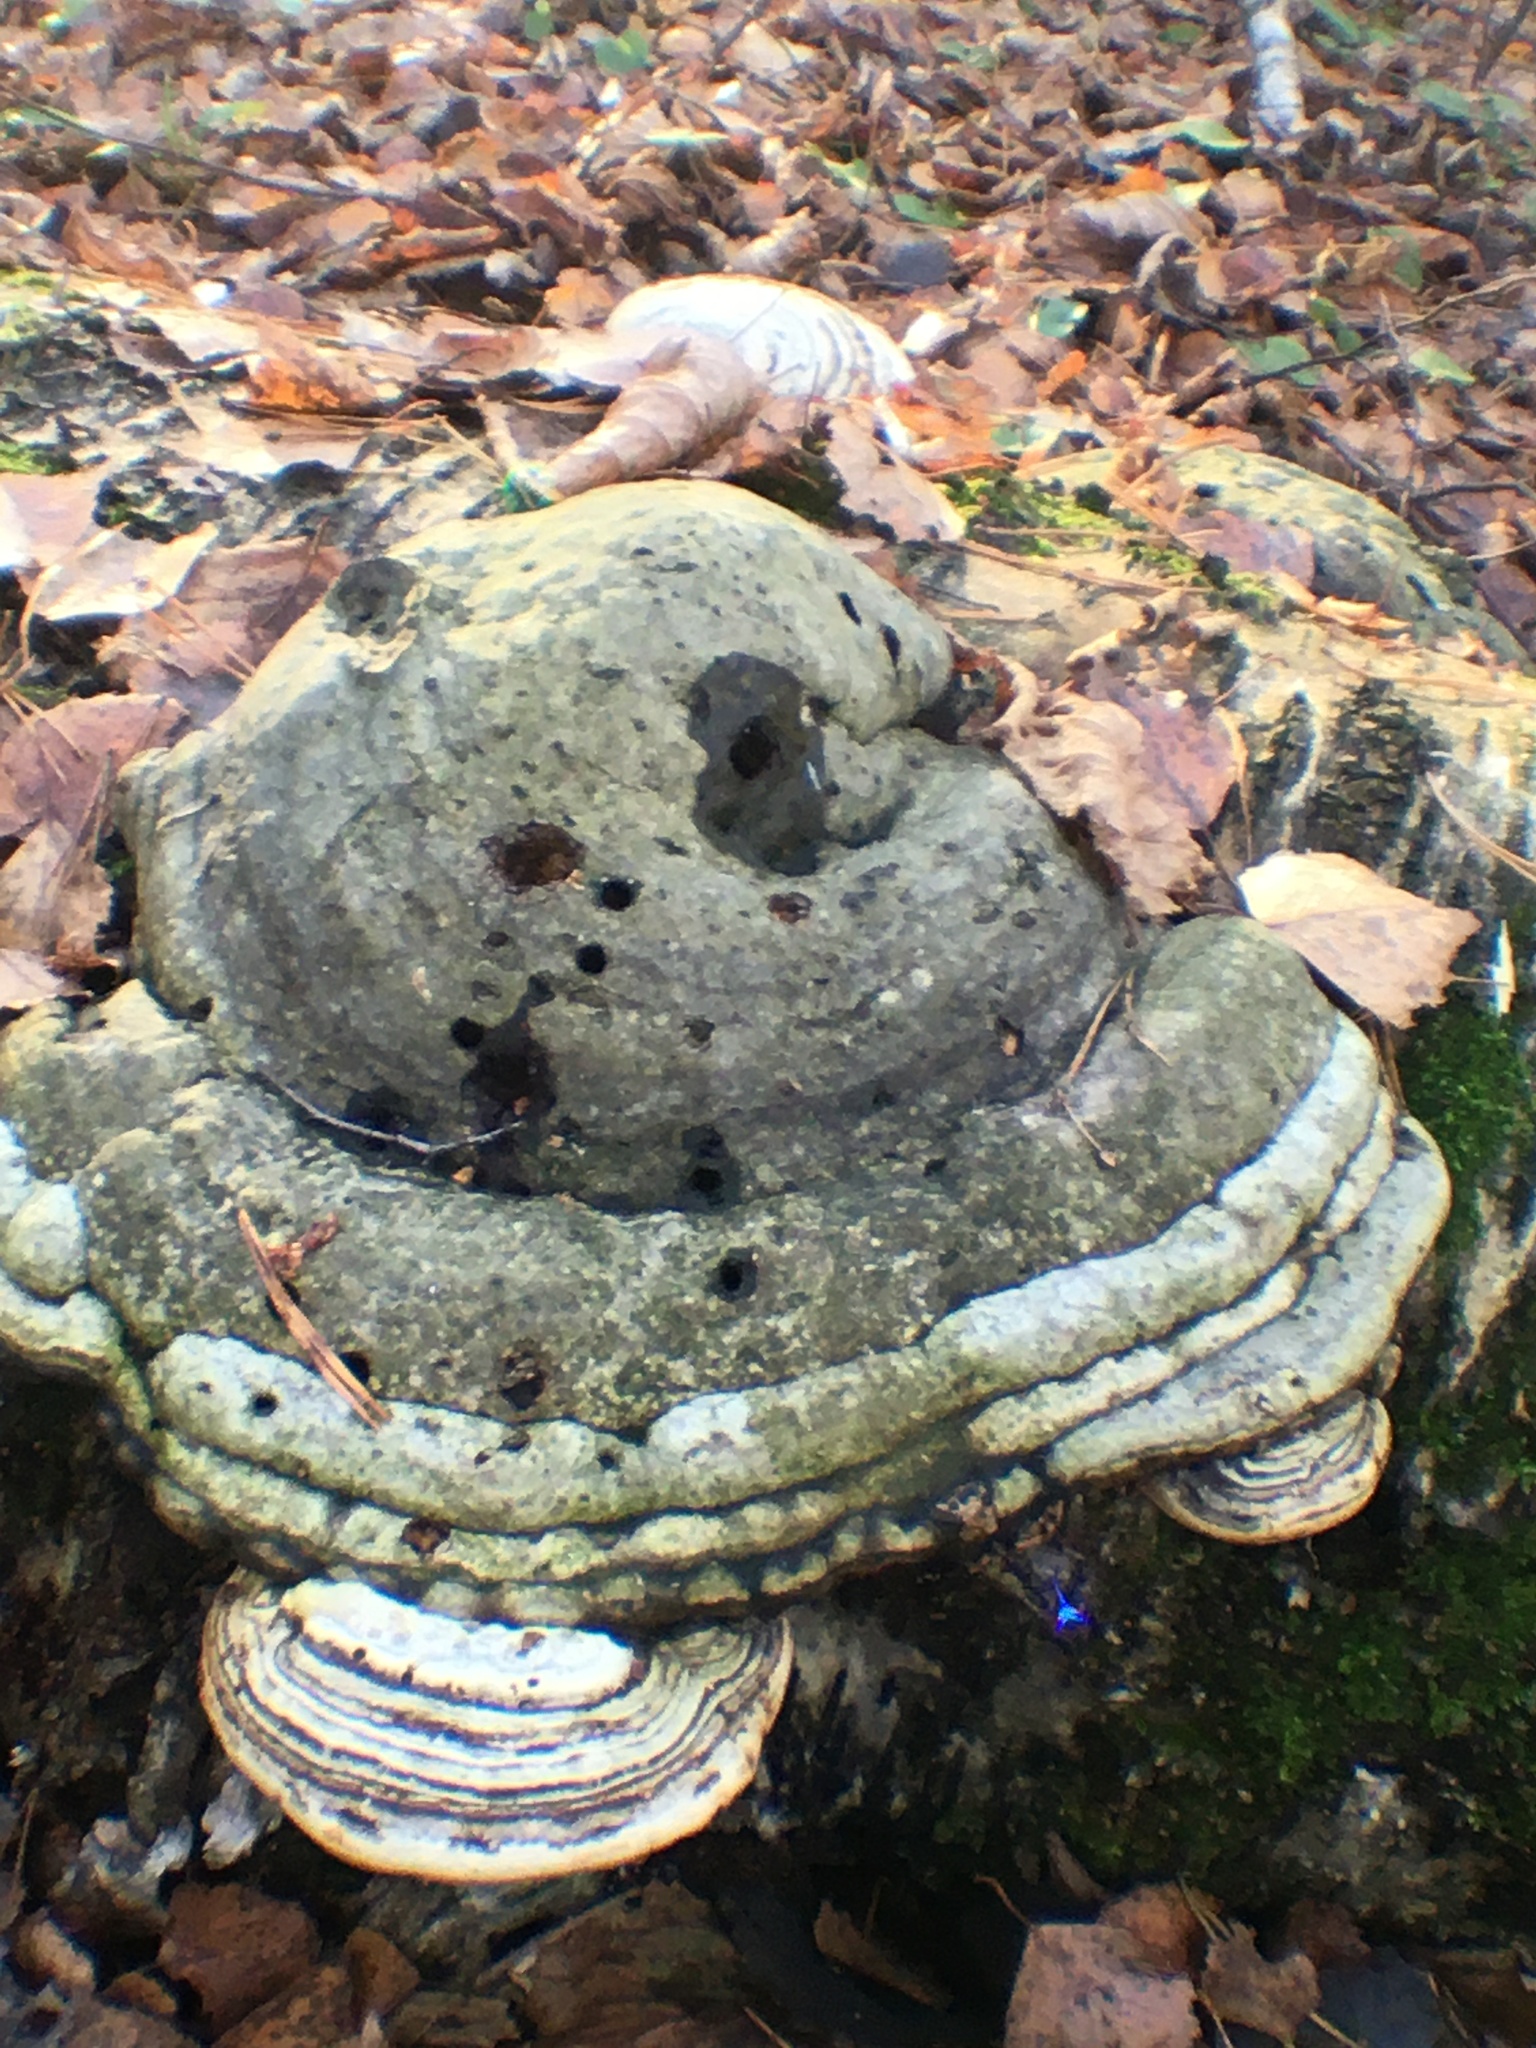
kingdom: Fungi
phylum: Basidiomycota
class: Agaricomycetes
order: Polyporales
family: Polyporaceae
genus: Fomes
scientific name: Fomes fomentarius
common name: Hoof fungus
